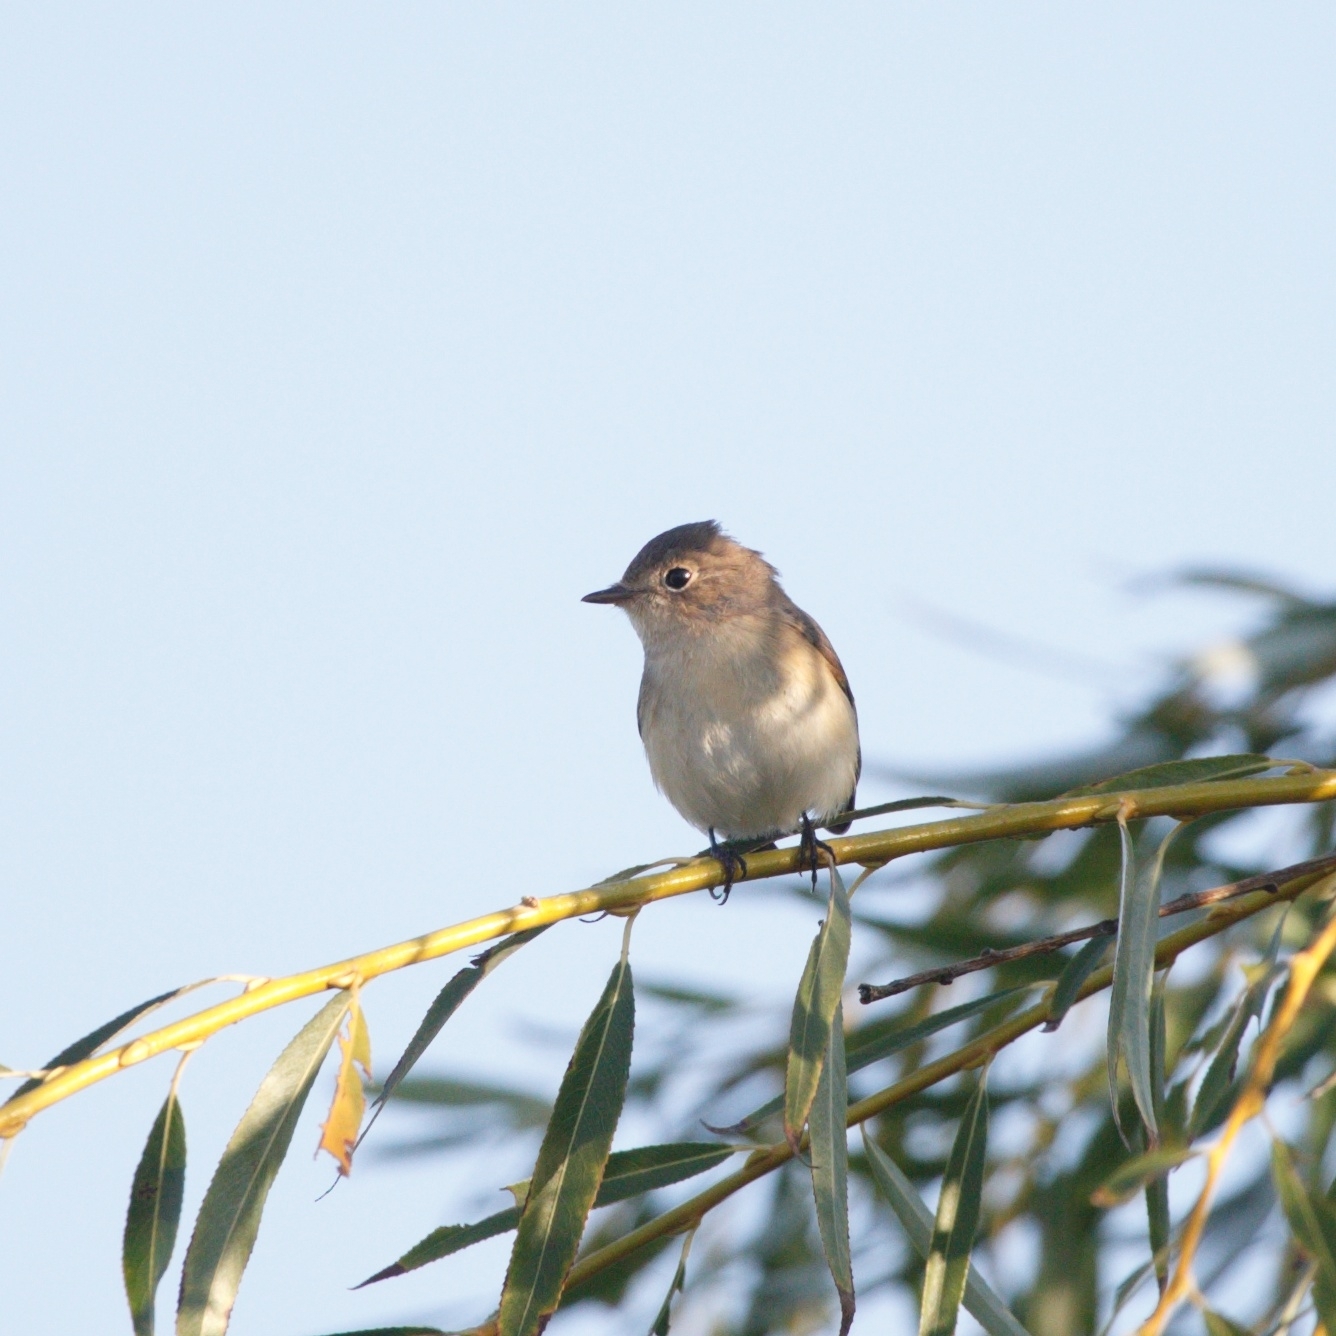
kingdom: Animalia
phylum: Chordata
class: Aves
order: Passeriformes
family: Muscicapidae
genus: Ficedula
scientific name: Ficedula parva
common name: Red-breasted flycatcher
